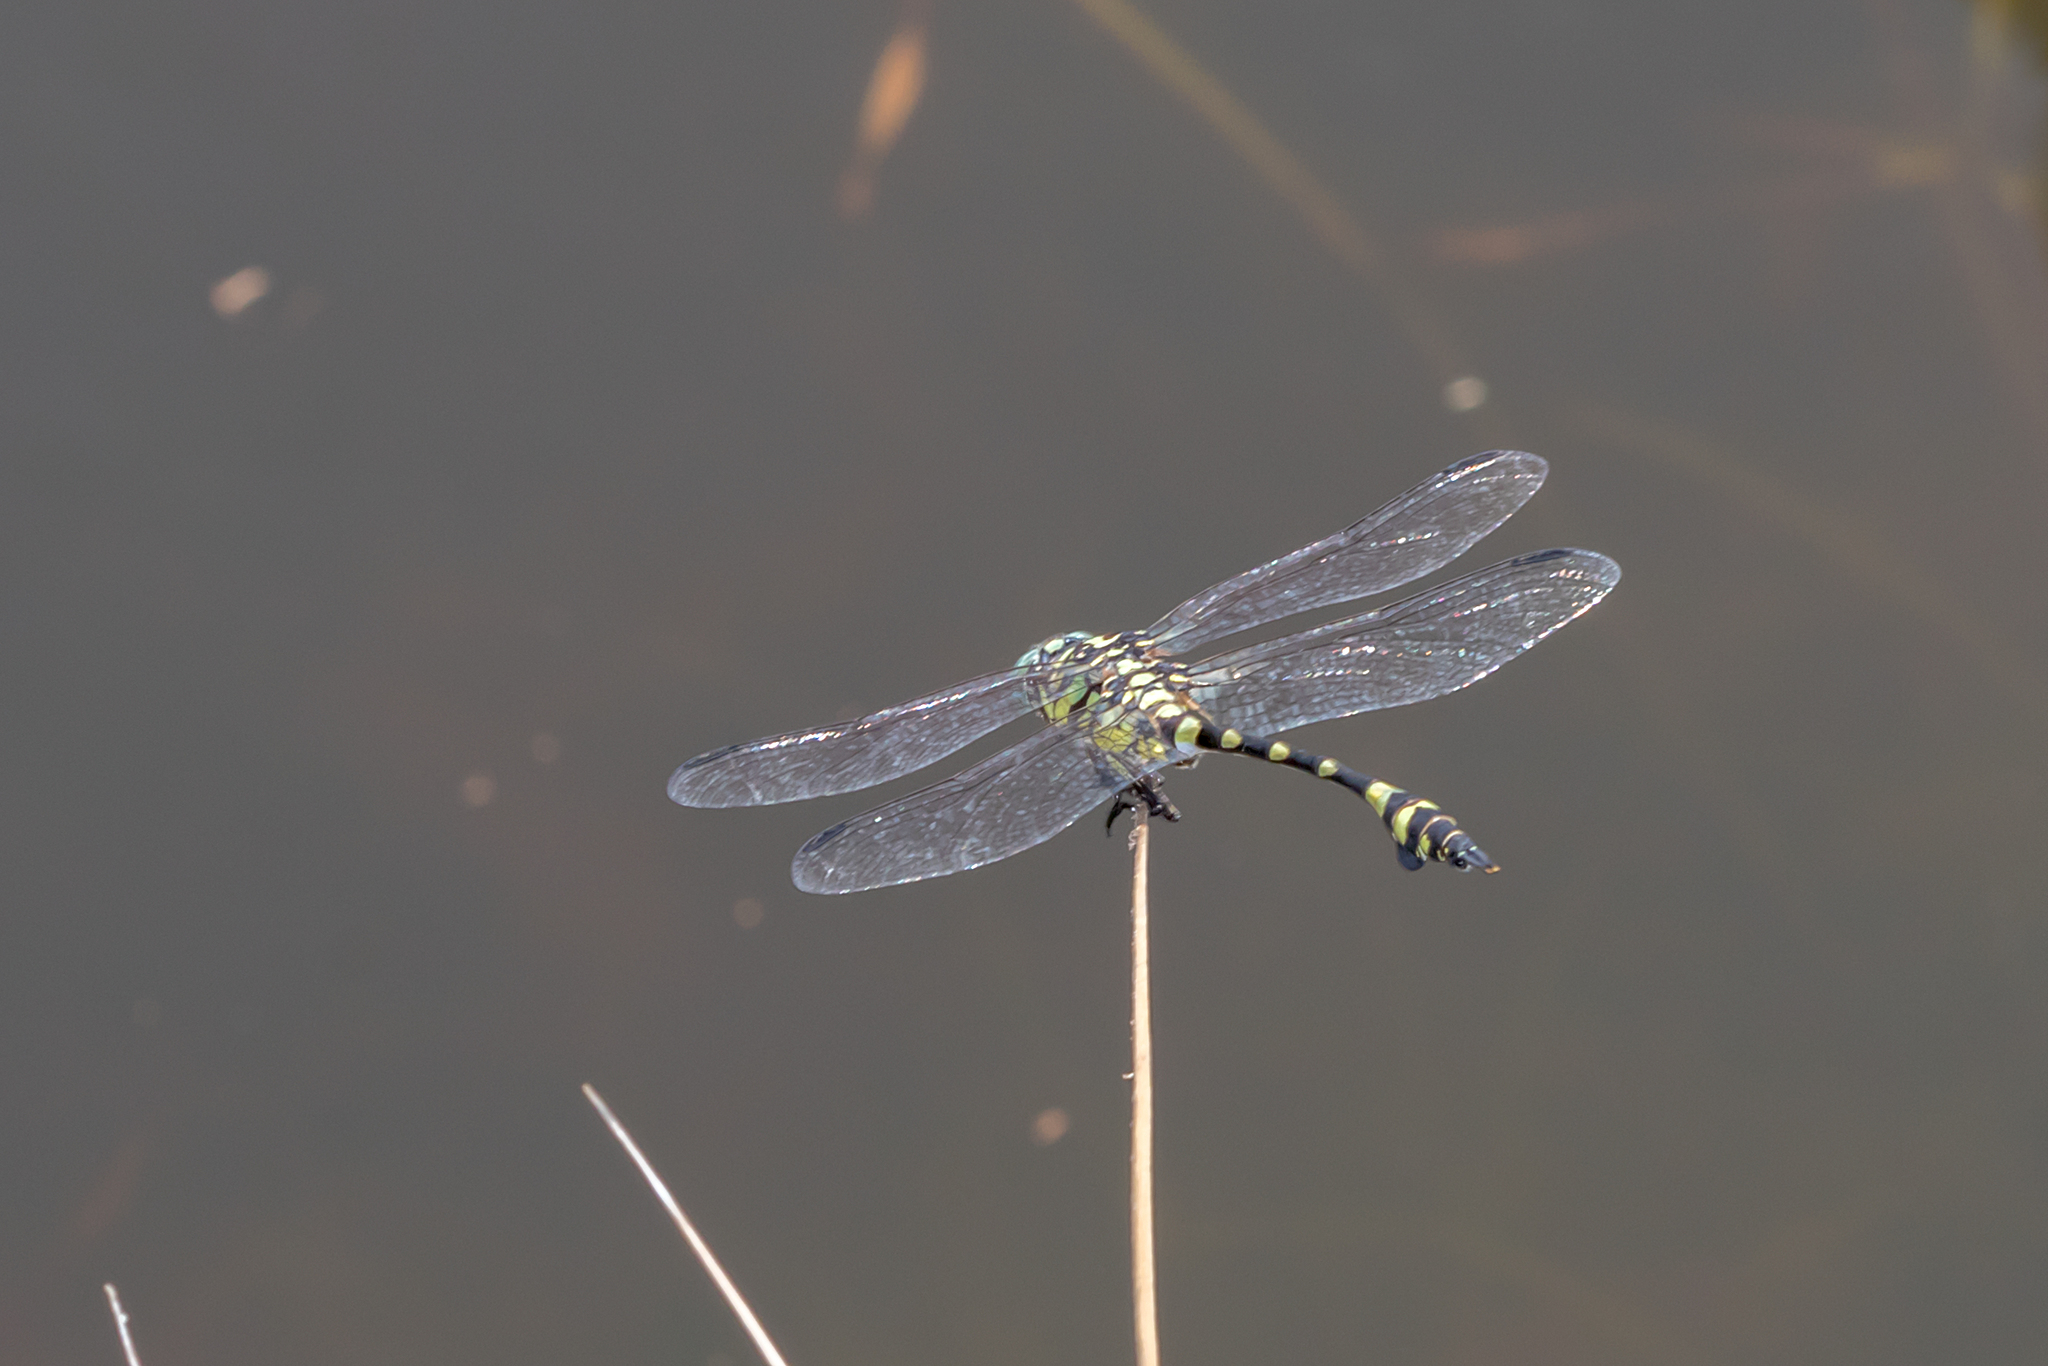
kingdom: Animalia
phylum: Arthropoda
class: Insecta
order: Odonata
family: Gomphidae
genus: Ictinogomphus
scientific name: Ictinogomphus australis
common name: Australian tiger
